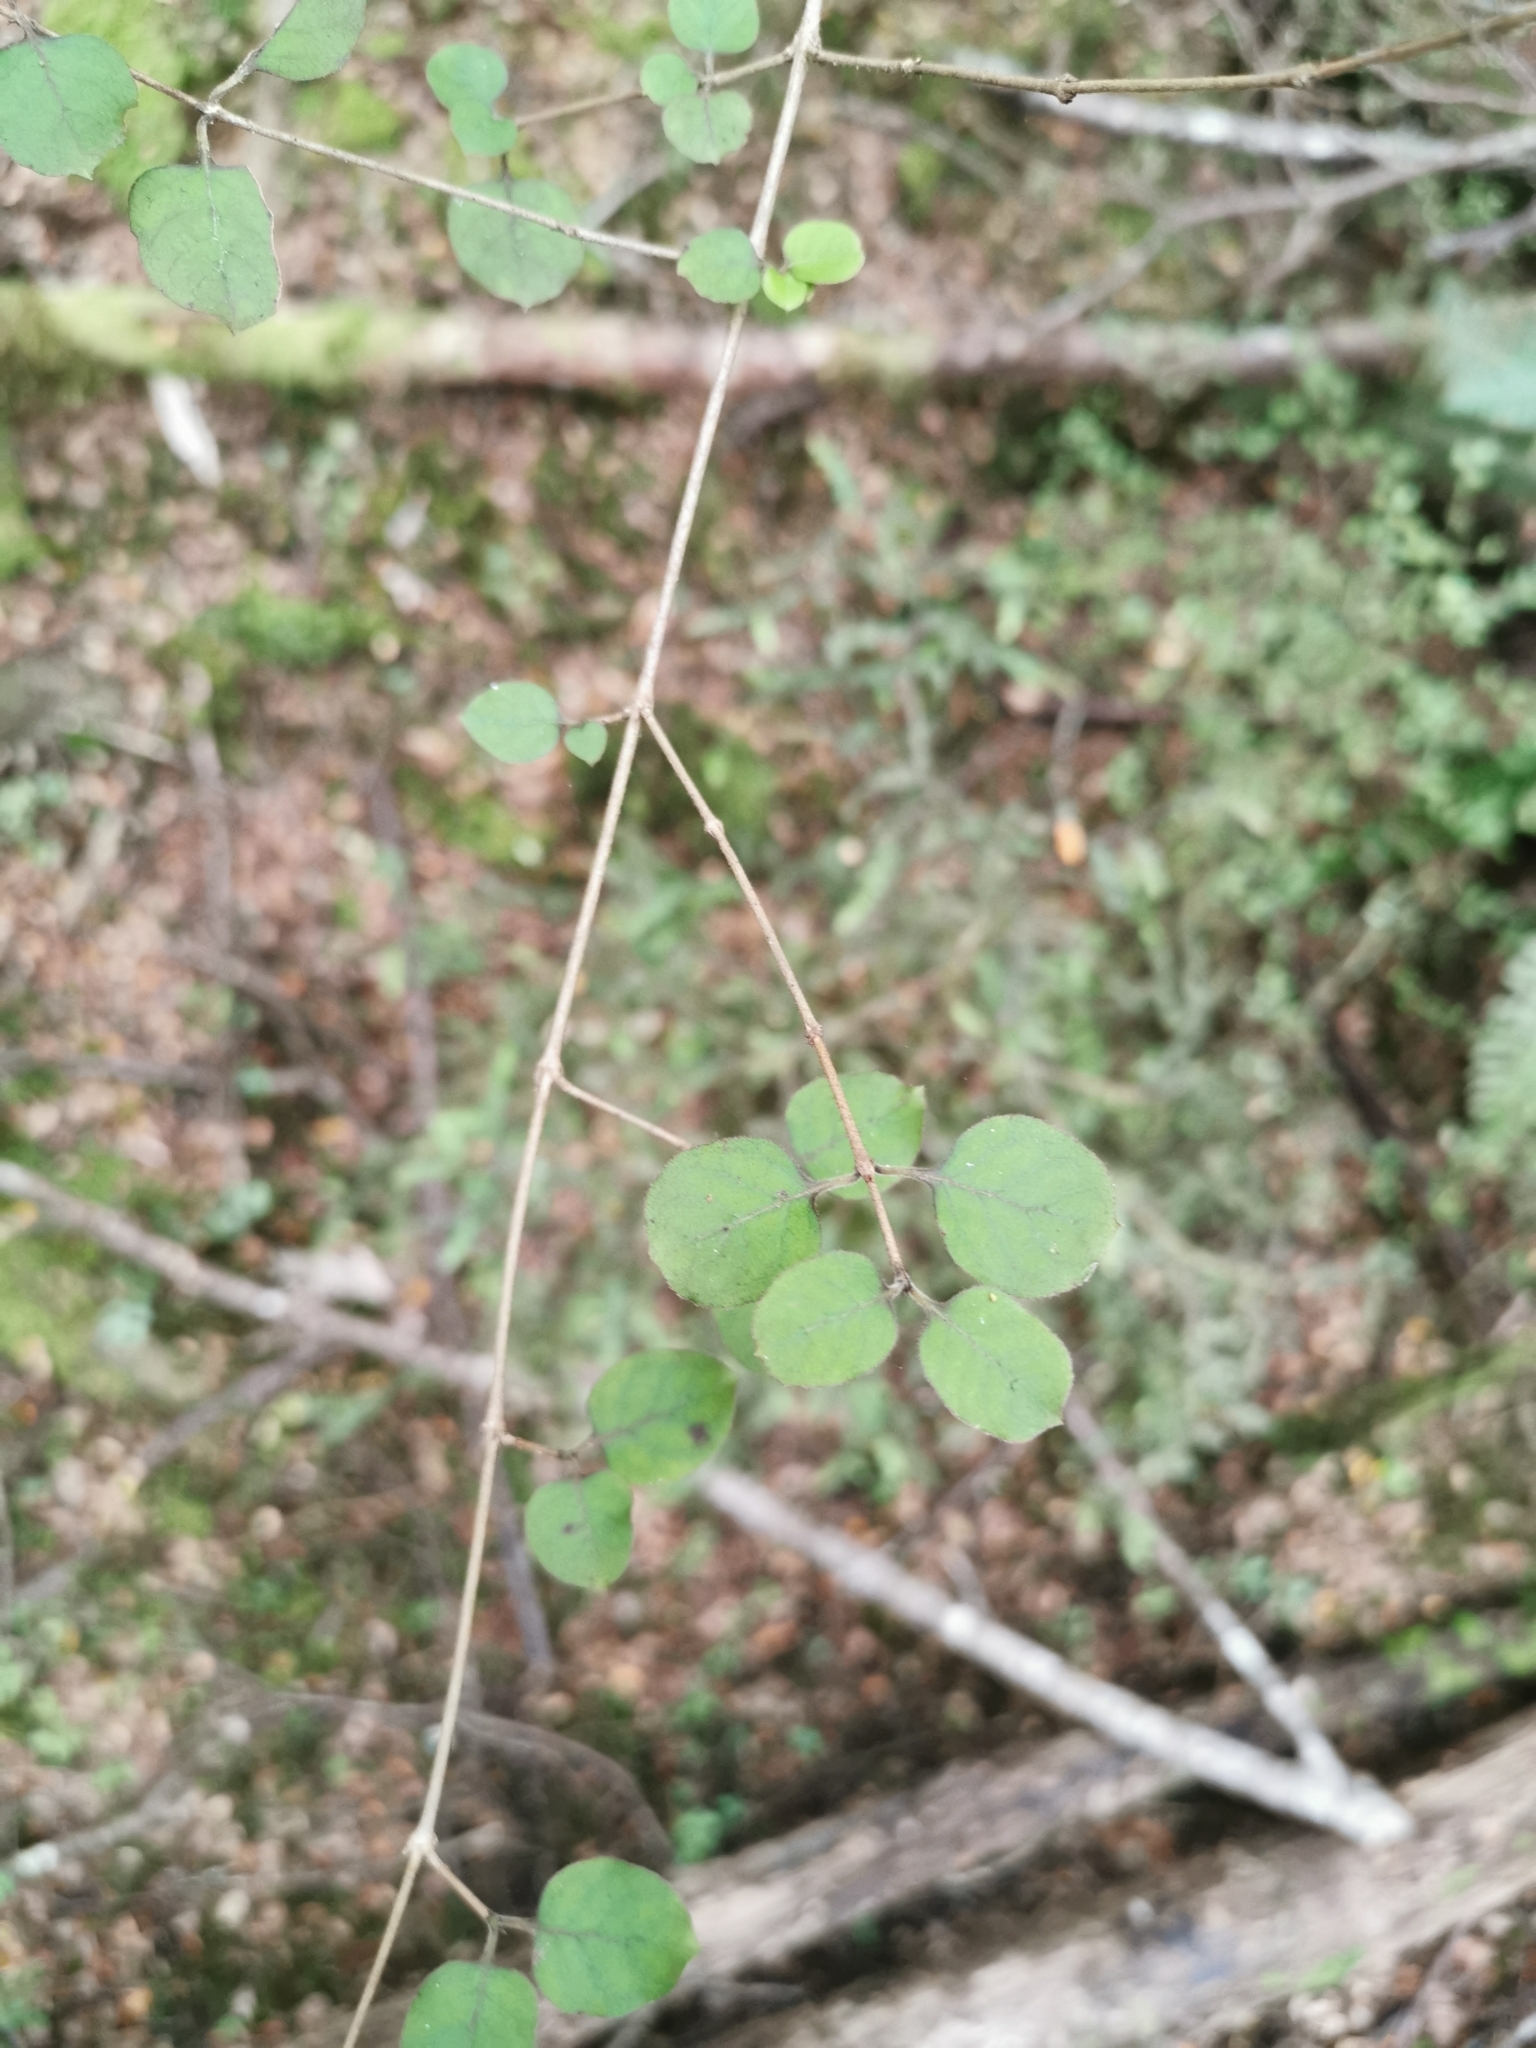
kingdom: Plantae
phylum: Tracheophyta
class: Magnoliopsida
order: Gentianales
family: Rubiaceae
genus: Coprosma
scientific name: Coprosma rotundifolia
